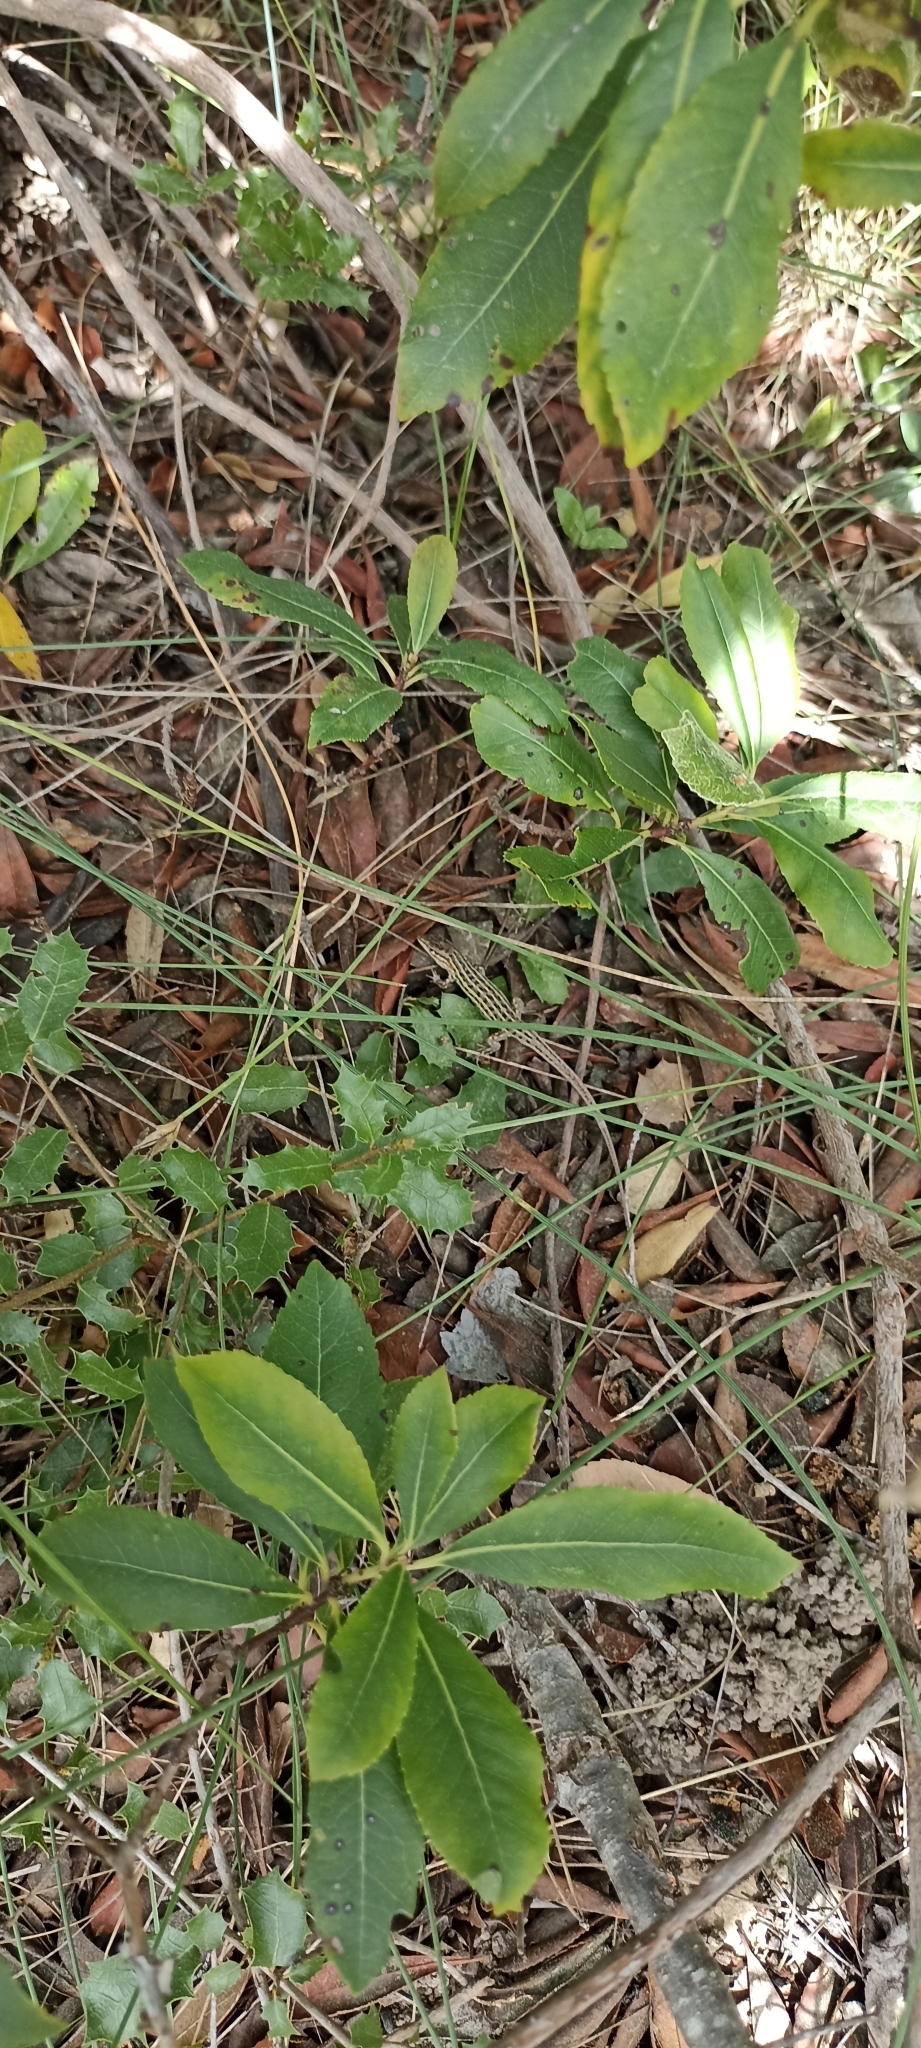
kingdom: Animalia
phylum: Chordata
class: Squamata
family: Lacertidae
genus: Psammodromus
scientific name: Psammodromus edwarsianus
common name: East iberian psammodromus
